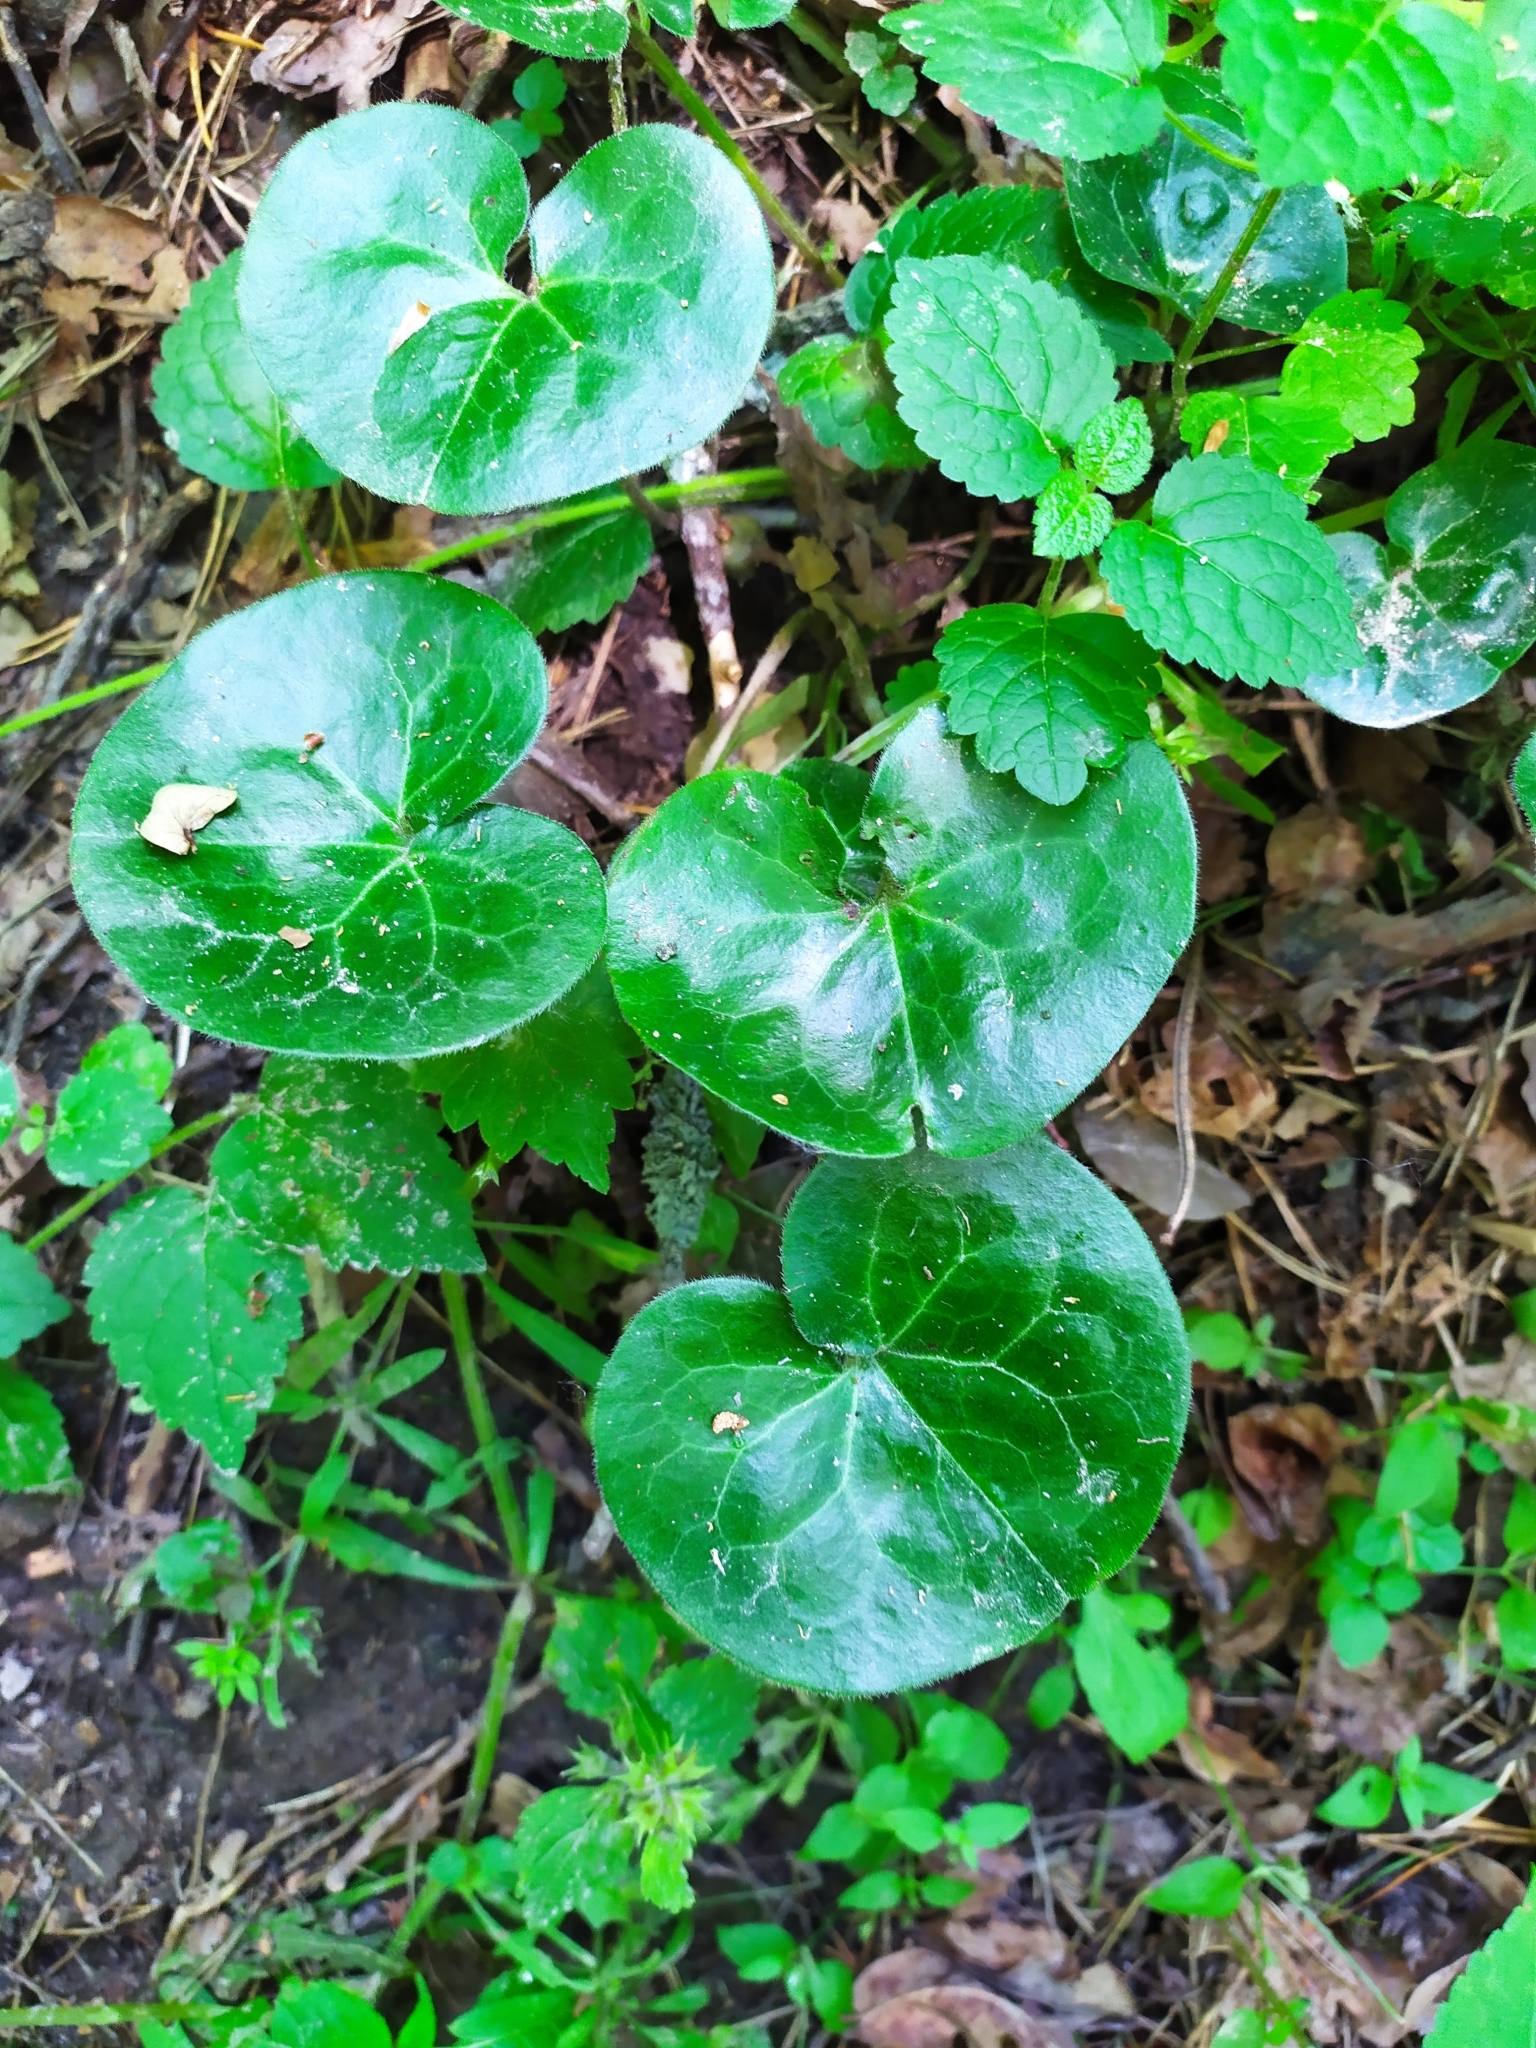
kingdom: Plantae
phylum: Tracheophyta
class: Magnoliopsida
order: Piperales
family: Aristolochiaceae
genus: Asarum
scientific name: Asarum europaeum
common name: Asarabacca
